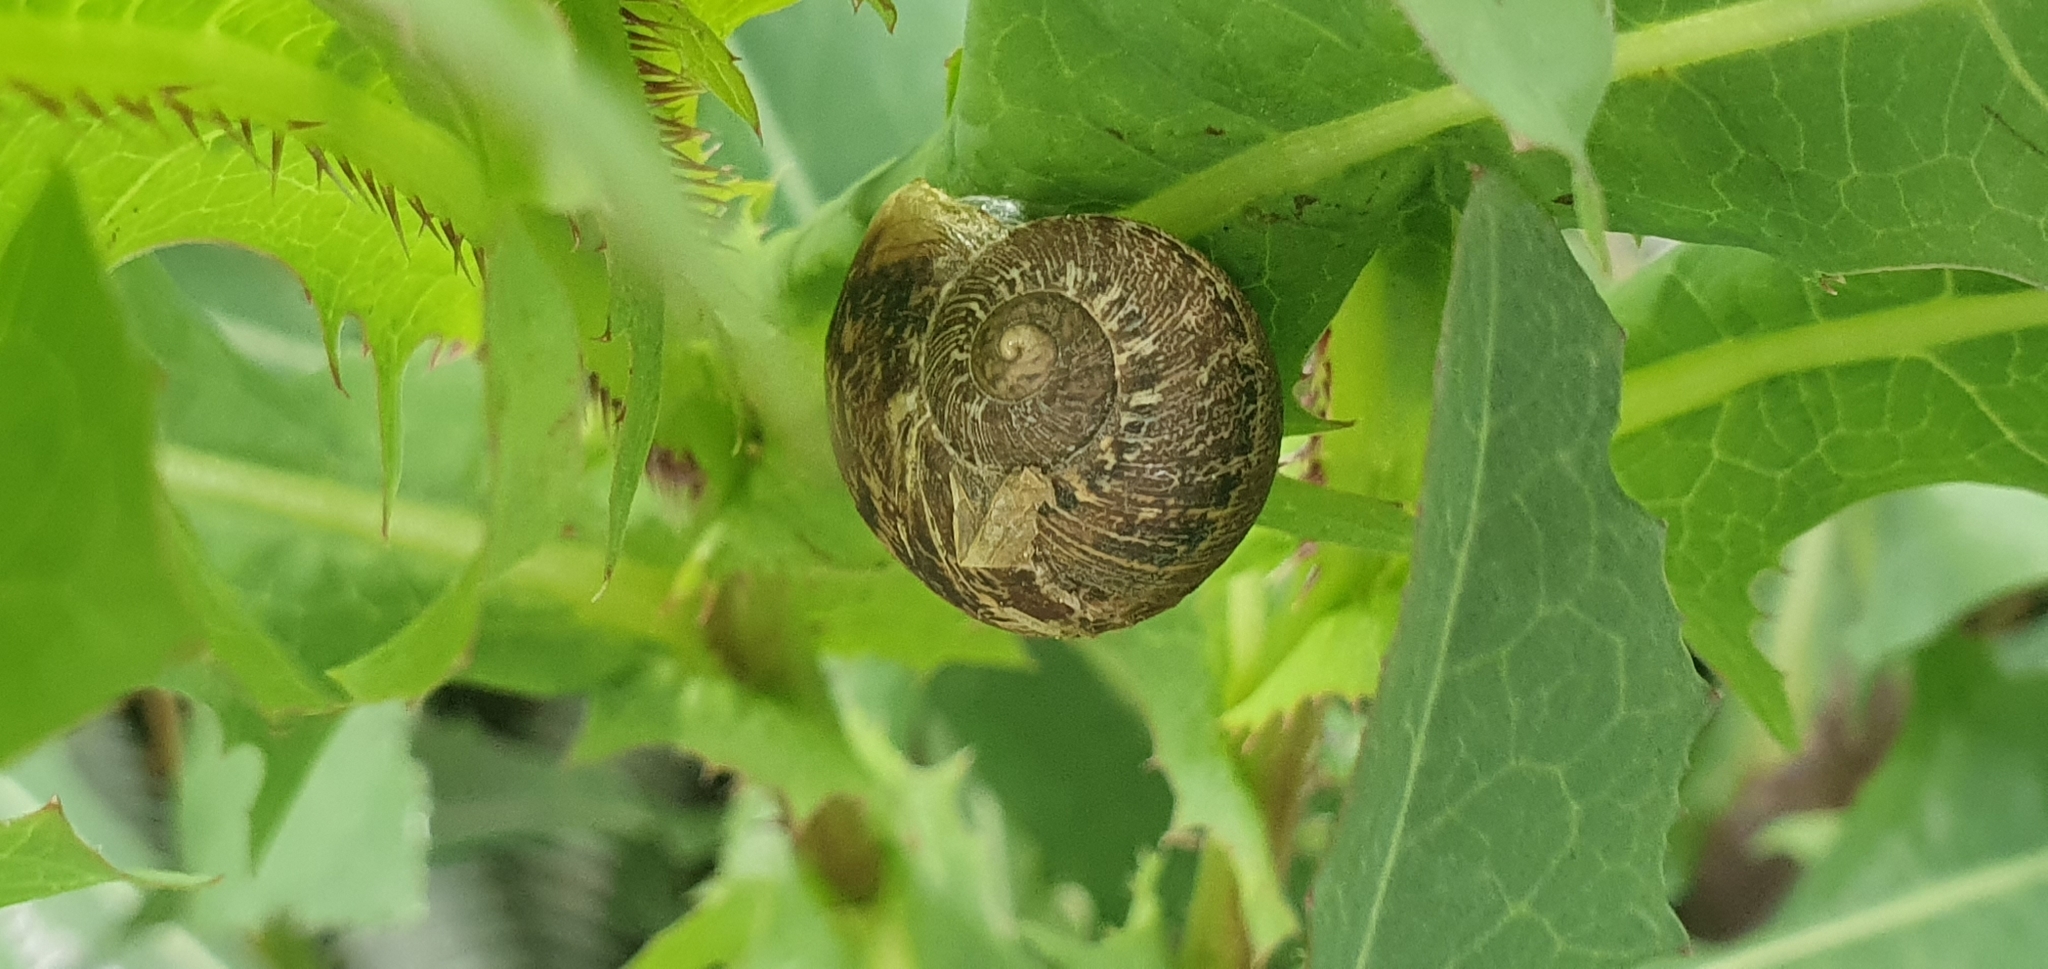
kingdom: Animalia
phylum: Mollusca
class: Gastropoda
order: Stylommatophora
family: Helicidae
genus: Cornu
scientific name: Cornu aspersum
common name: Brown garden snail
